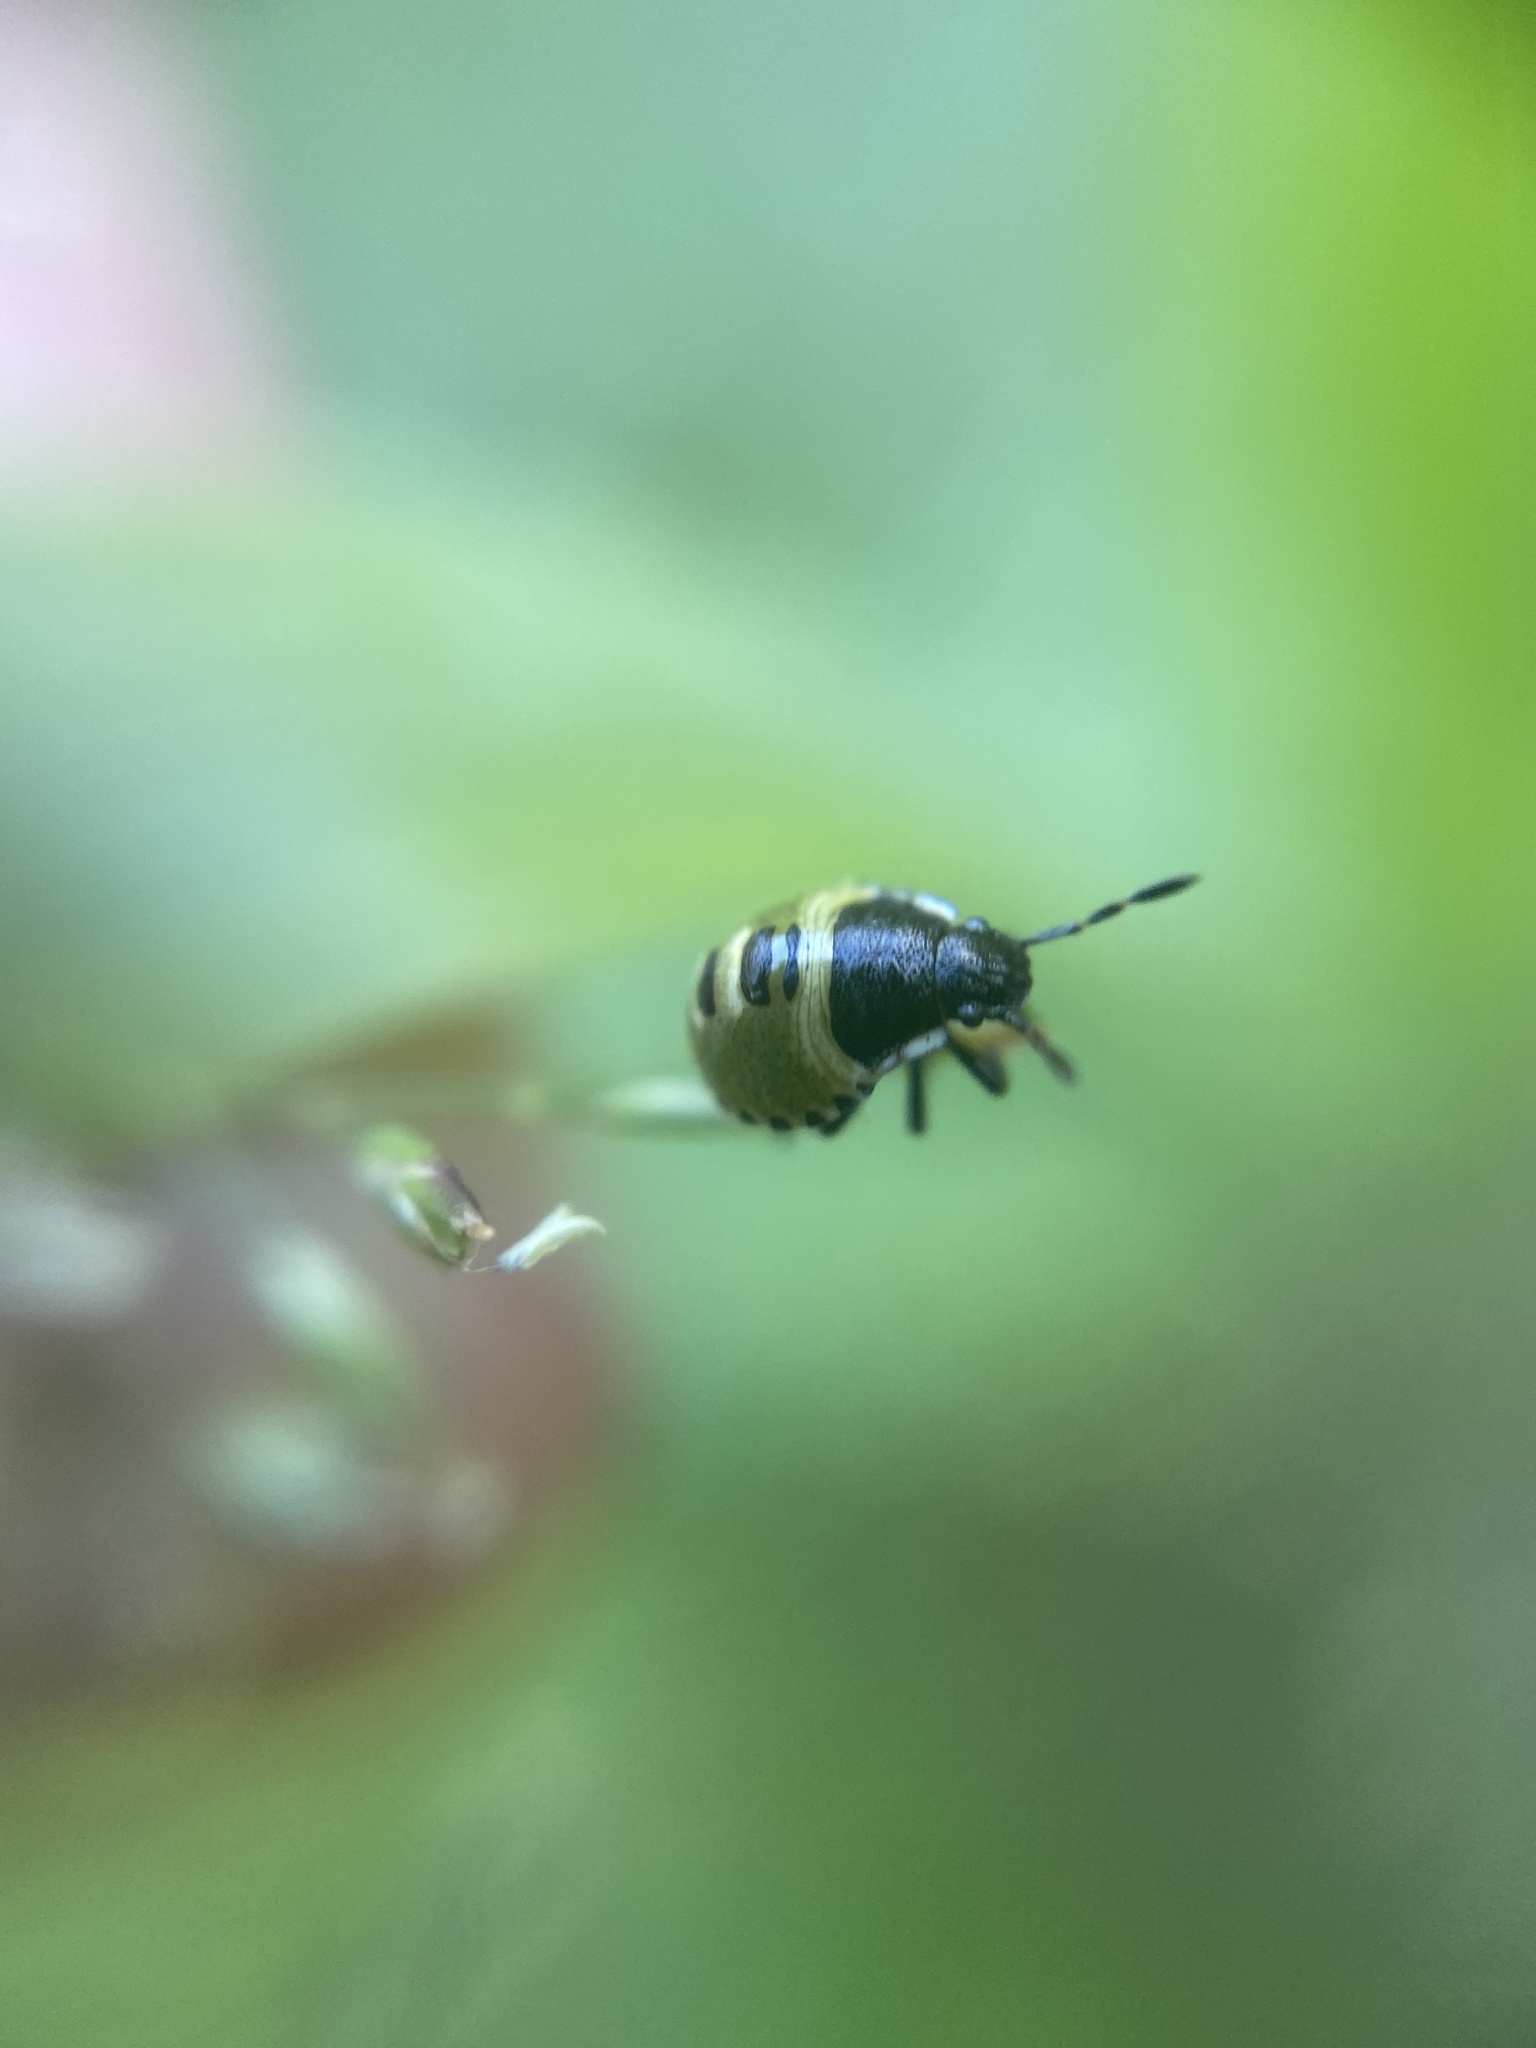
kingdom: Animalia
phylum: Arthropoda
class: Insecta
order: Hemiptera
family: Pentatomidae
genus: Palomena
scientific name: Palomena prasina
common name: Green shieldbug
